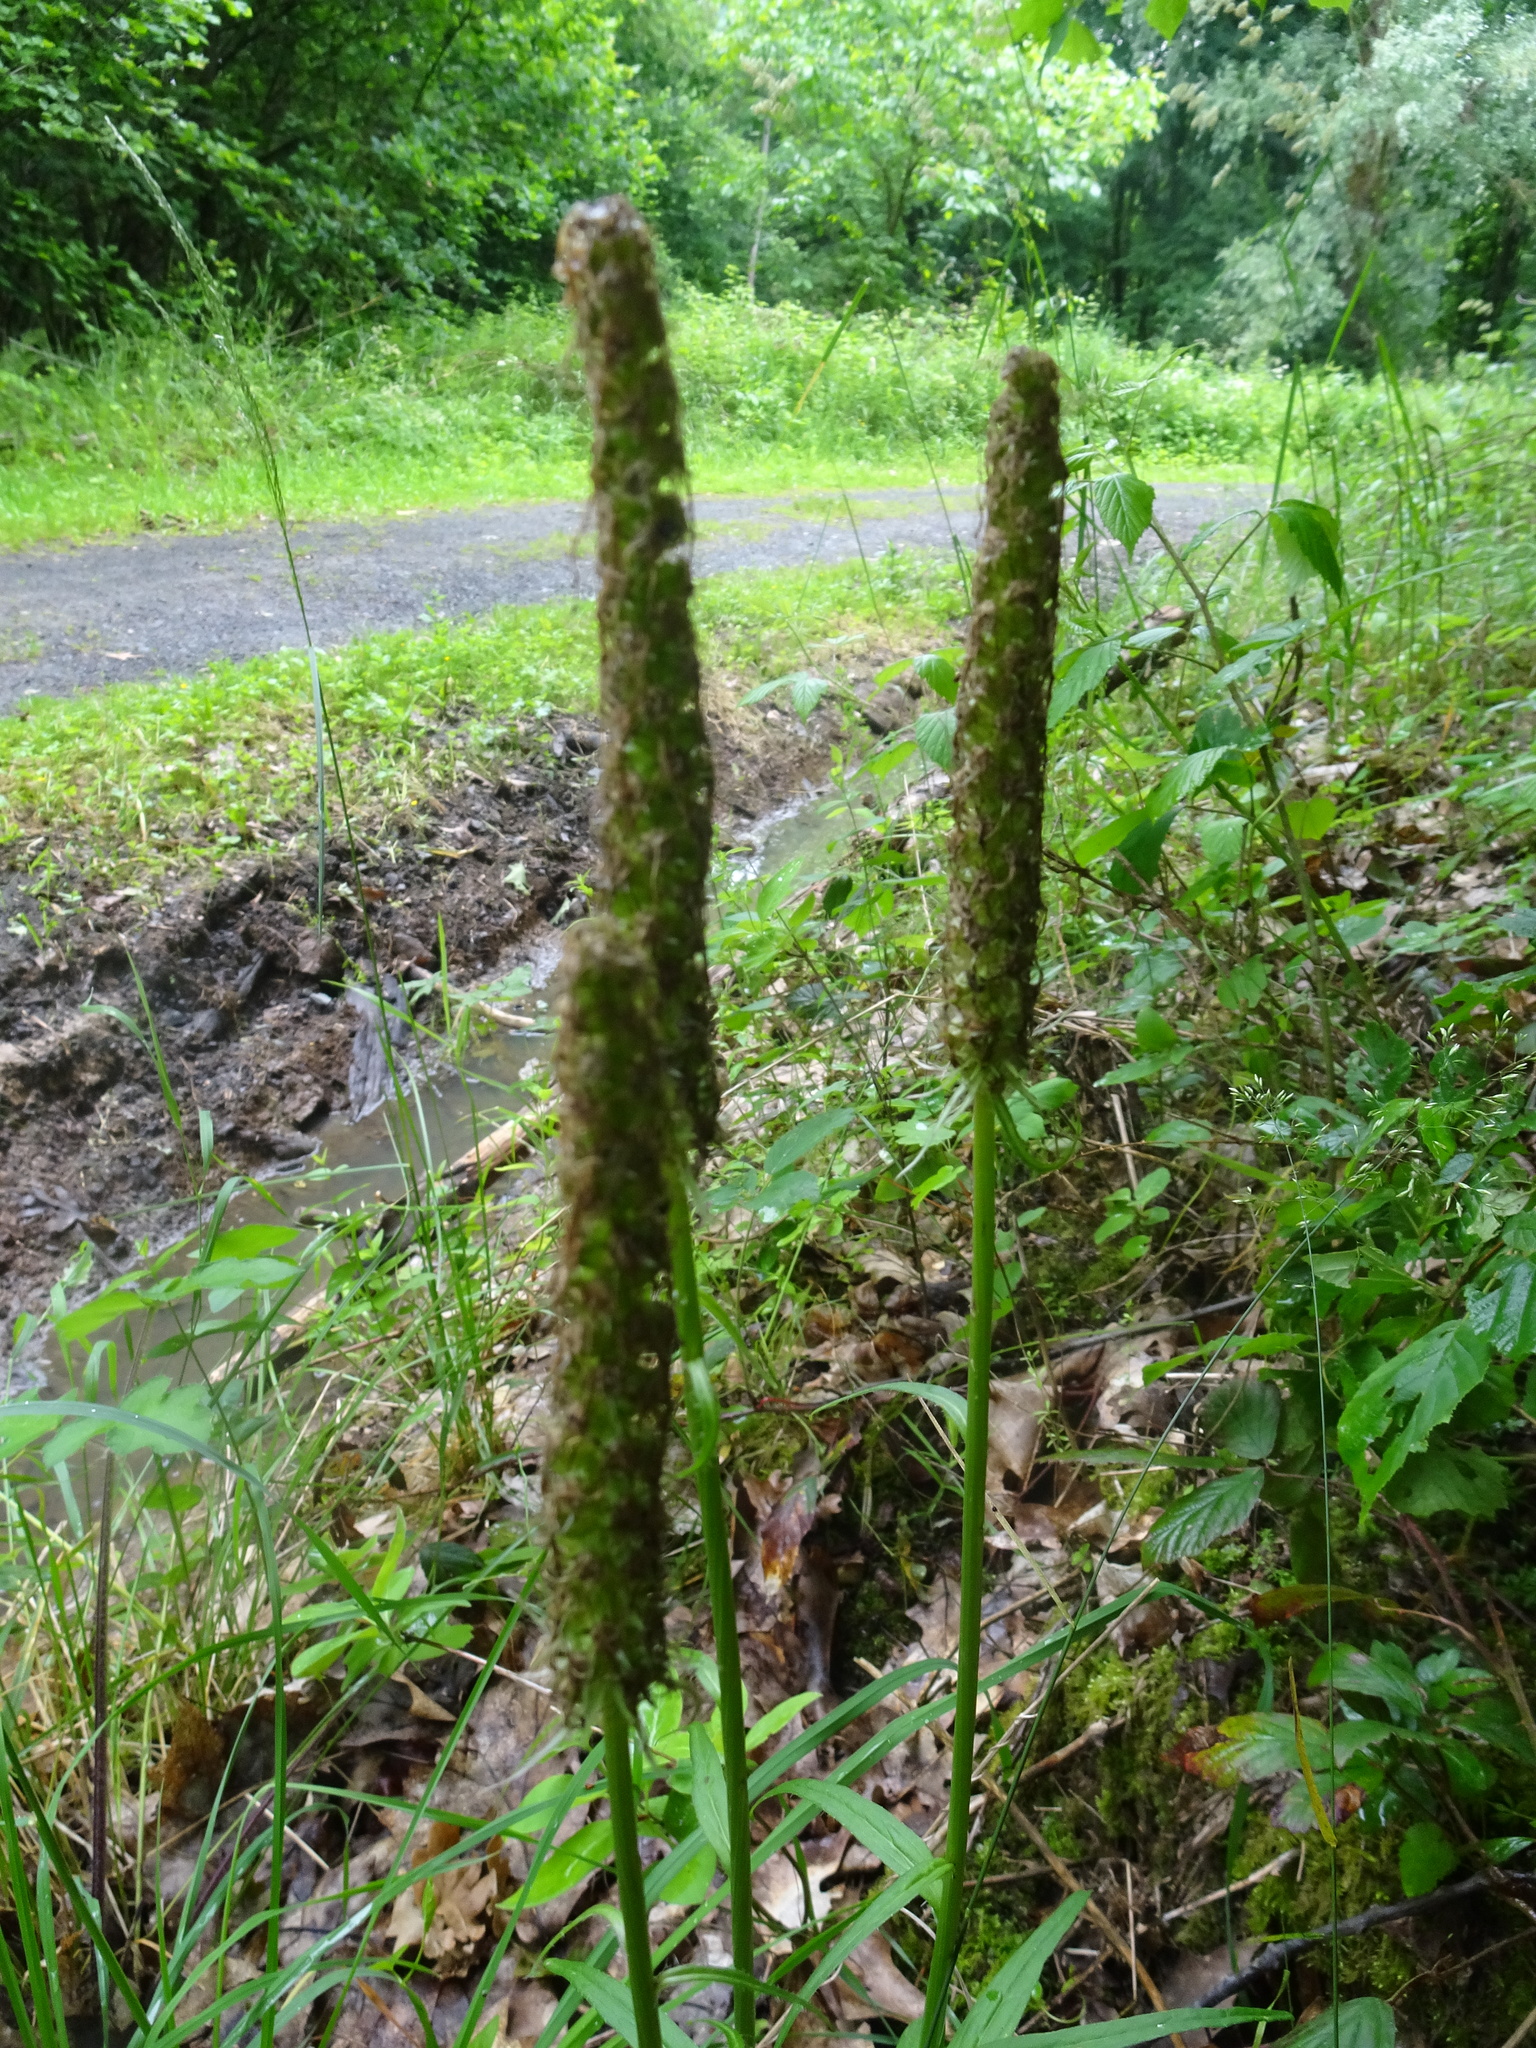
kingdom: Plantae
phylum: Tracheophyta
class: Magnoliopsida
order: Asterales
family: Campanulaceae
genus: Phyteuma
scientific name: Phyteuma spicatum
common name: Spiked rampion
